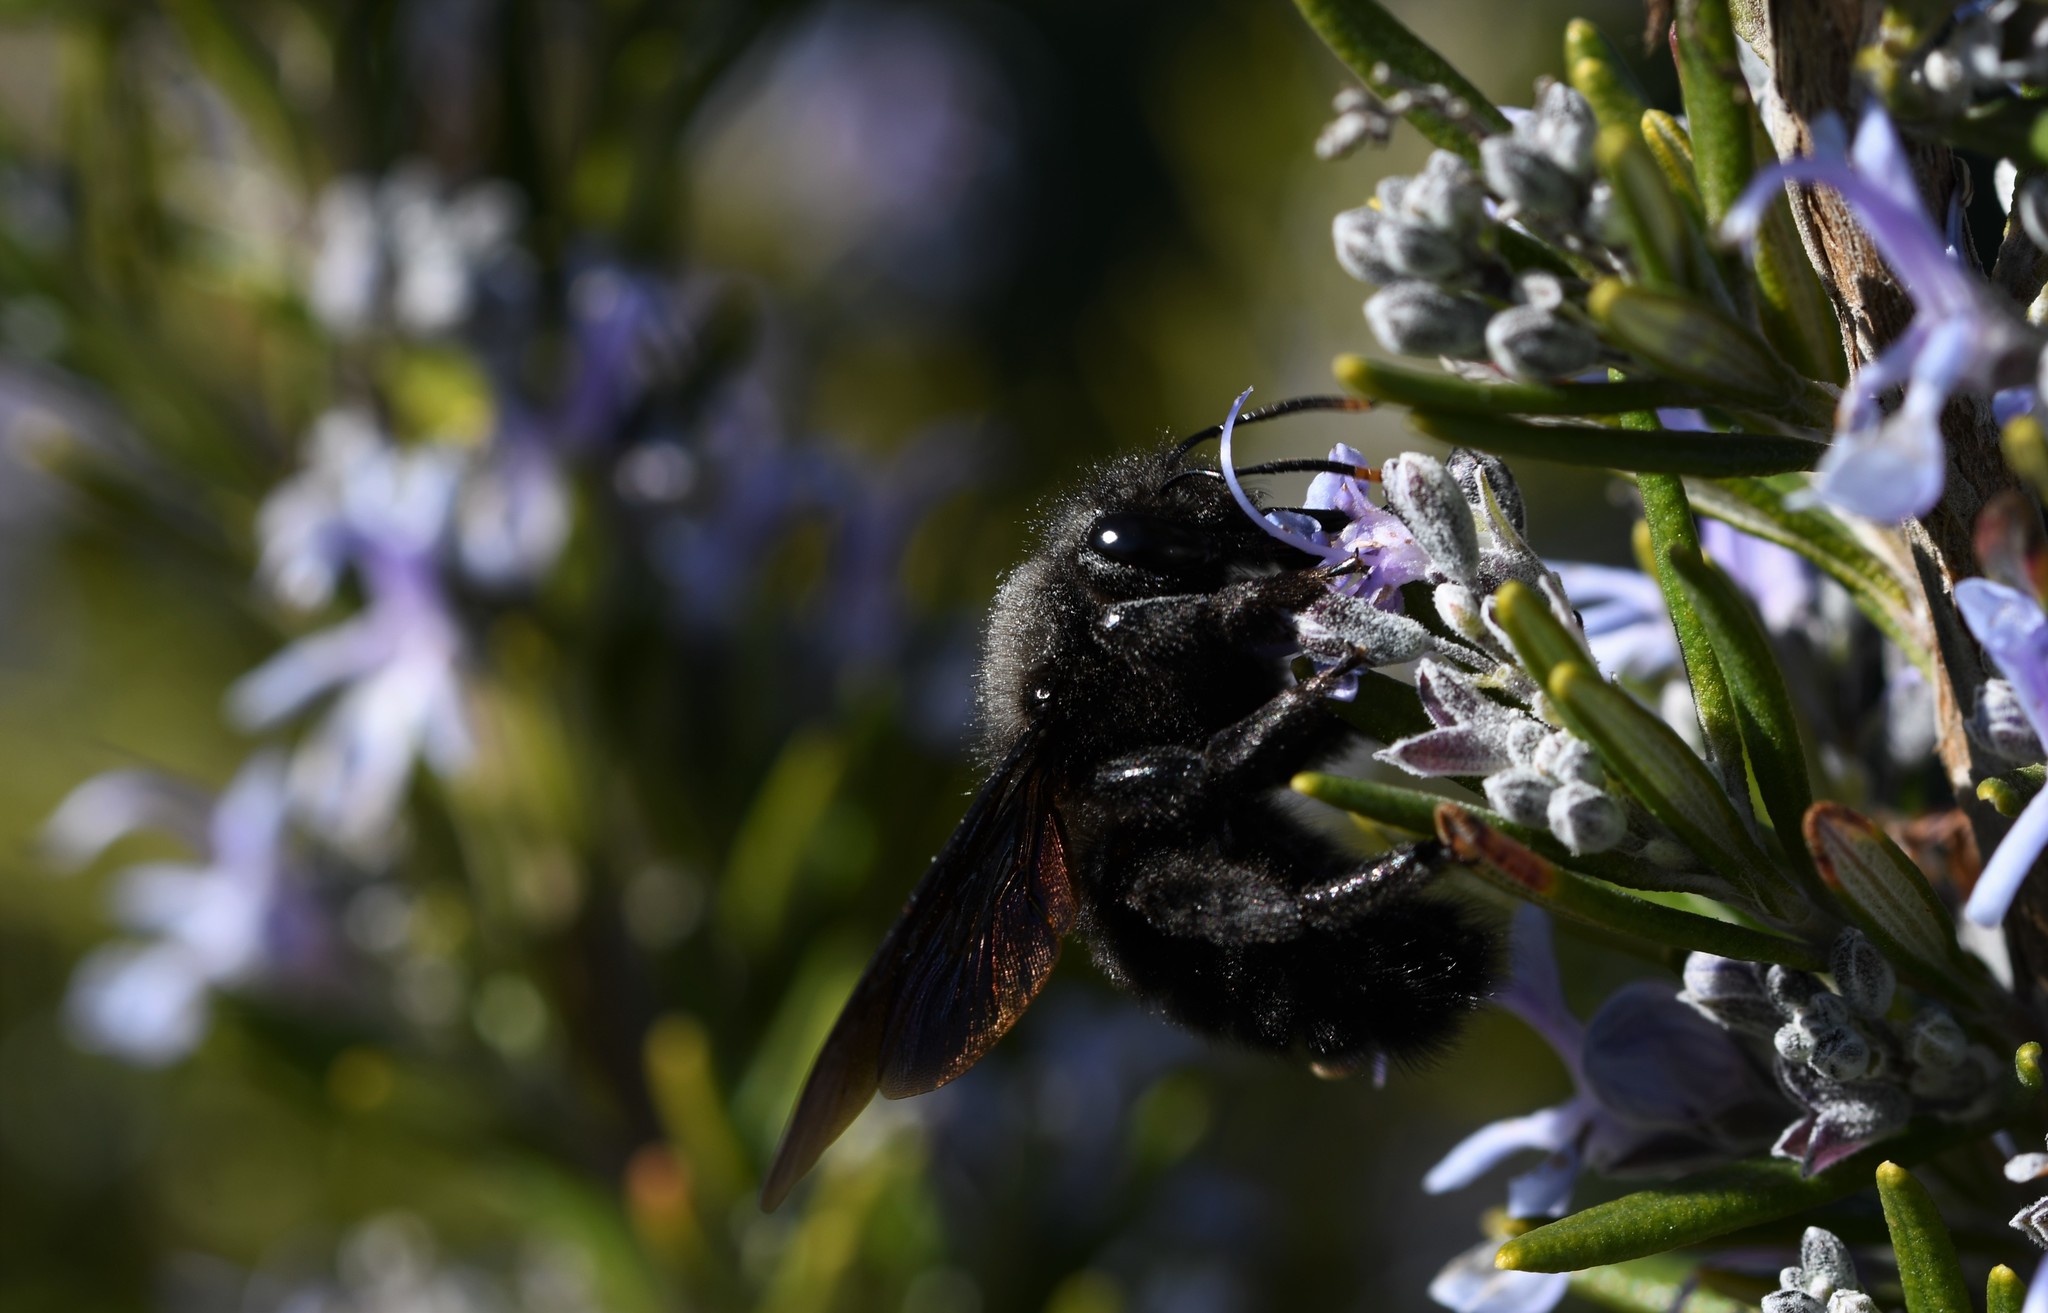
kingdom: Animalia
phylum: Arthropoda
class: Insecta
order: Hymenoptera
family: Apidae
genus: Xylocopa
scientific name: Xylocopa violacea
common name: Violet carpenter bee
